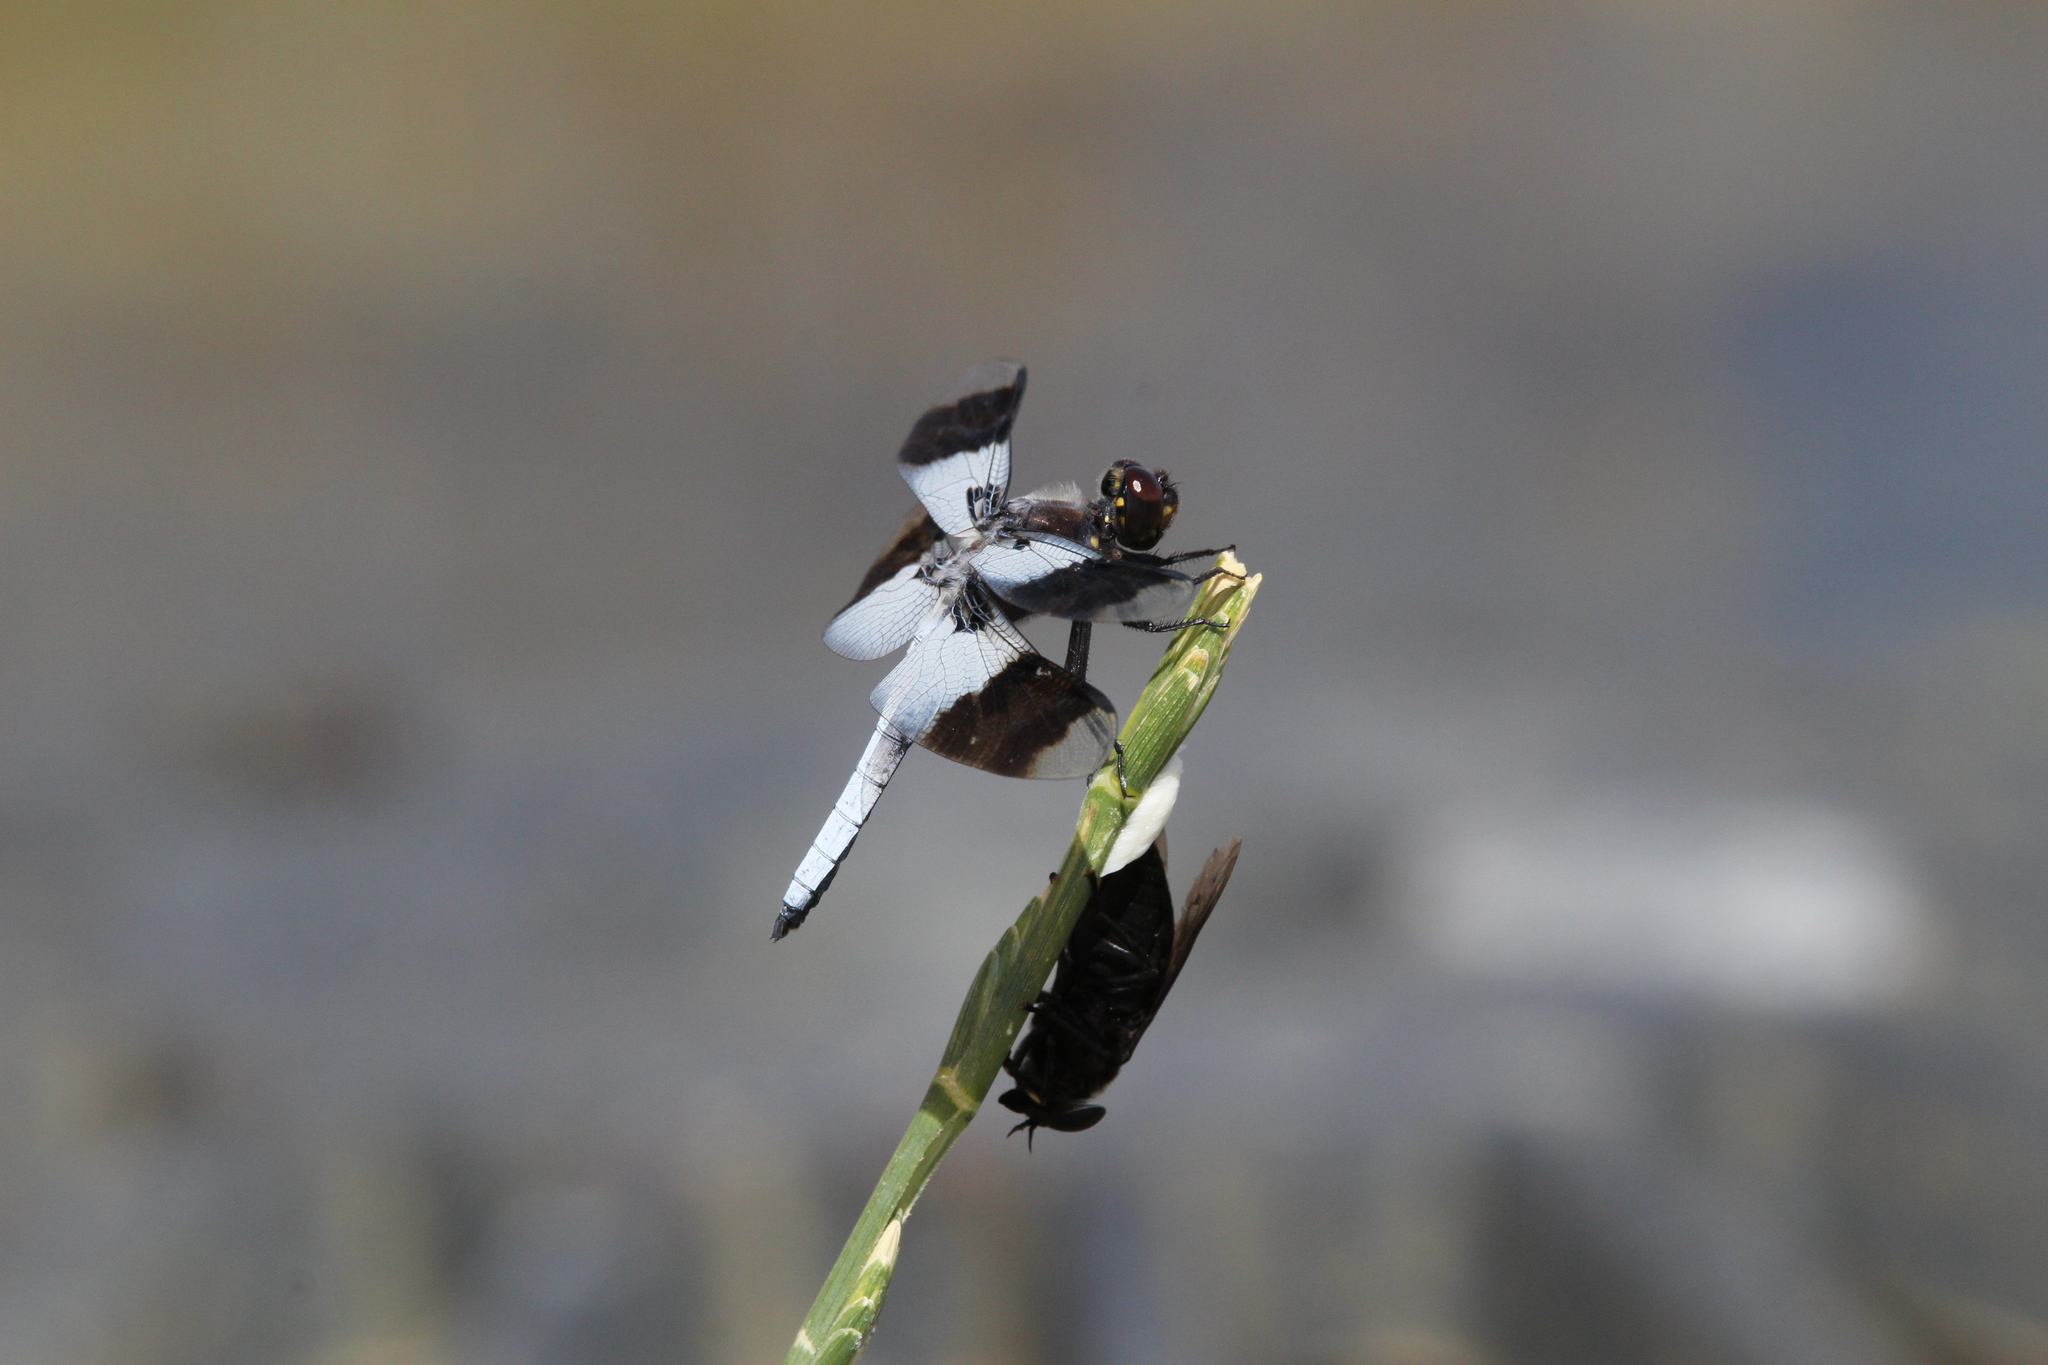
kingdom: Animalia
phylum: Arthropoda
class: Insecta
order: Odonata
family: Libellulidae
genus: Plathemis
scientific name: Plathemis subornata
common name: Desert whitetail
